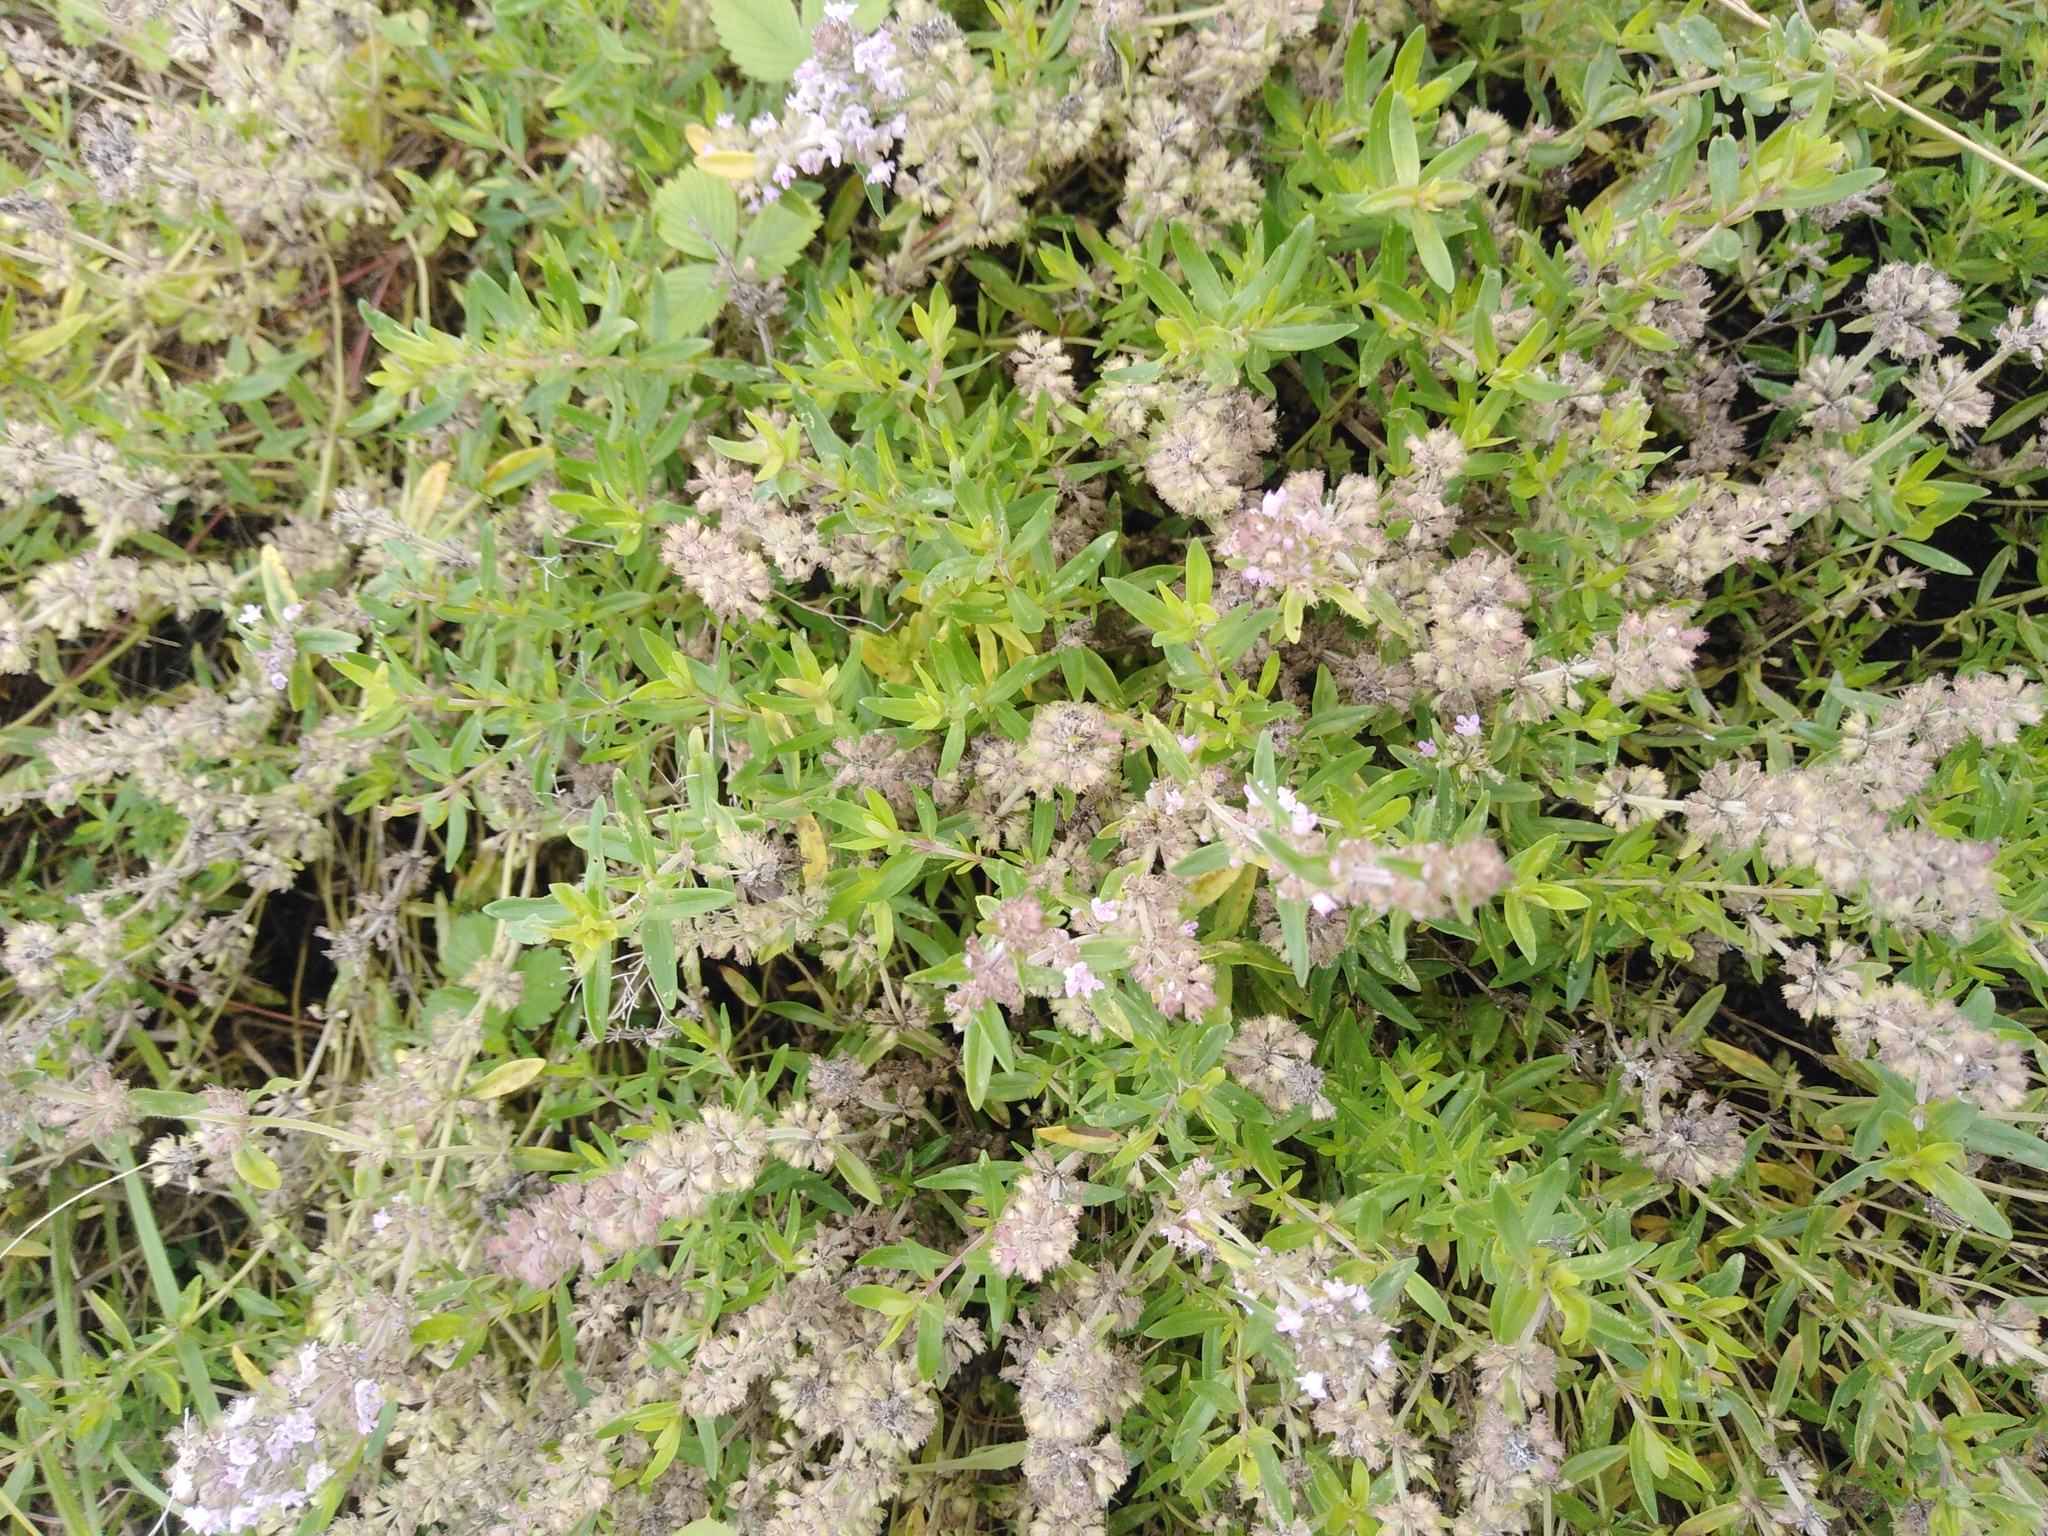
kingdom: Plantae
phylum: Tracheophyta
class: Magnoliopsida
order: Lamiales
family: Lamiaceae
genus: Thymus
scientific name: Thymus pannonicus
